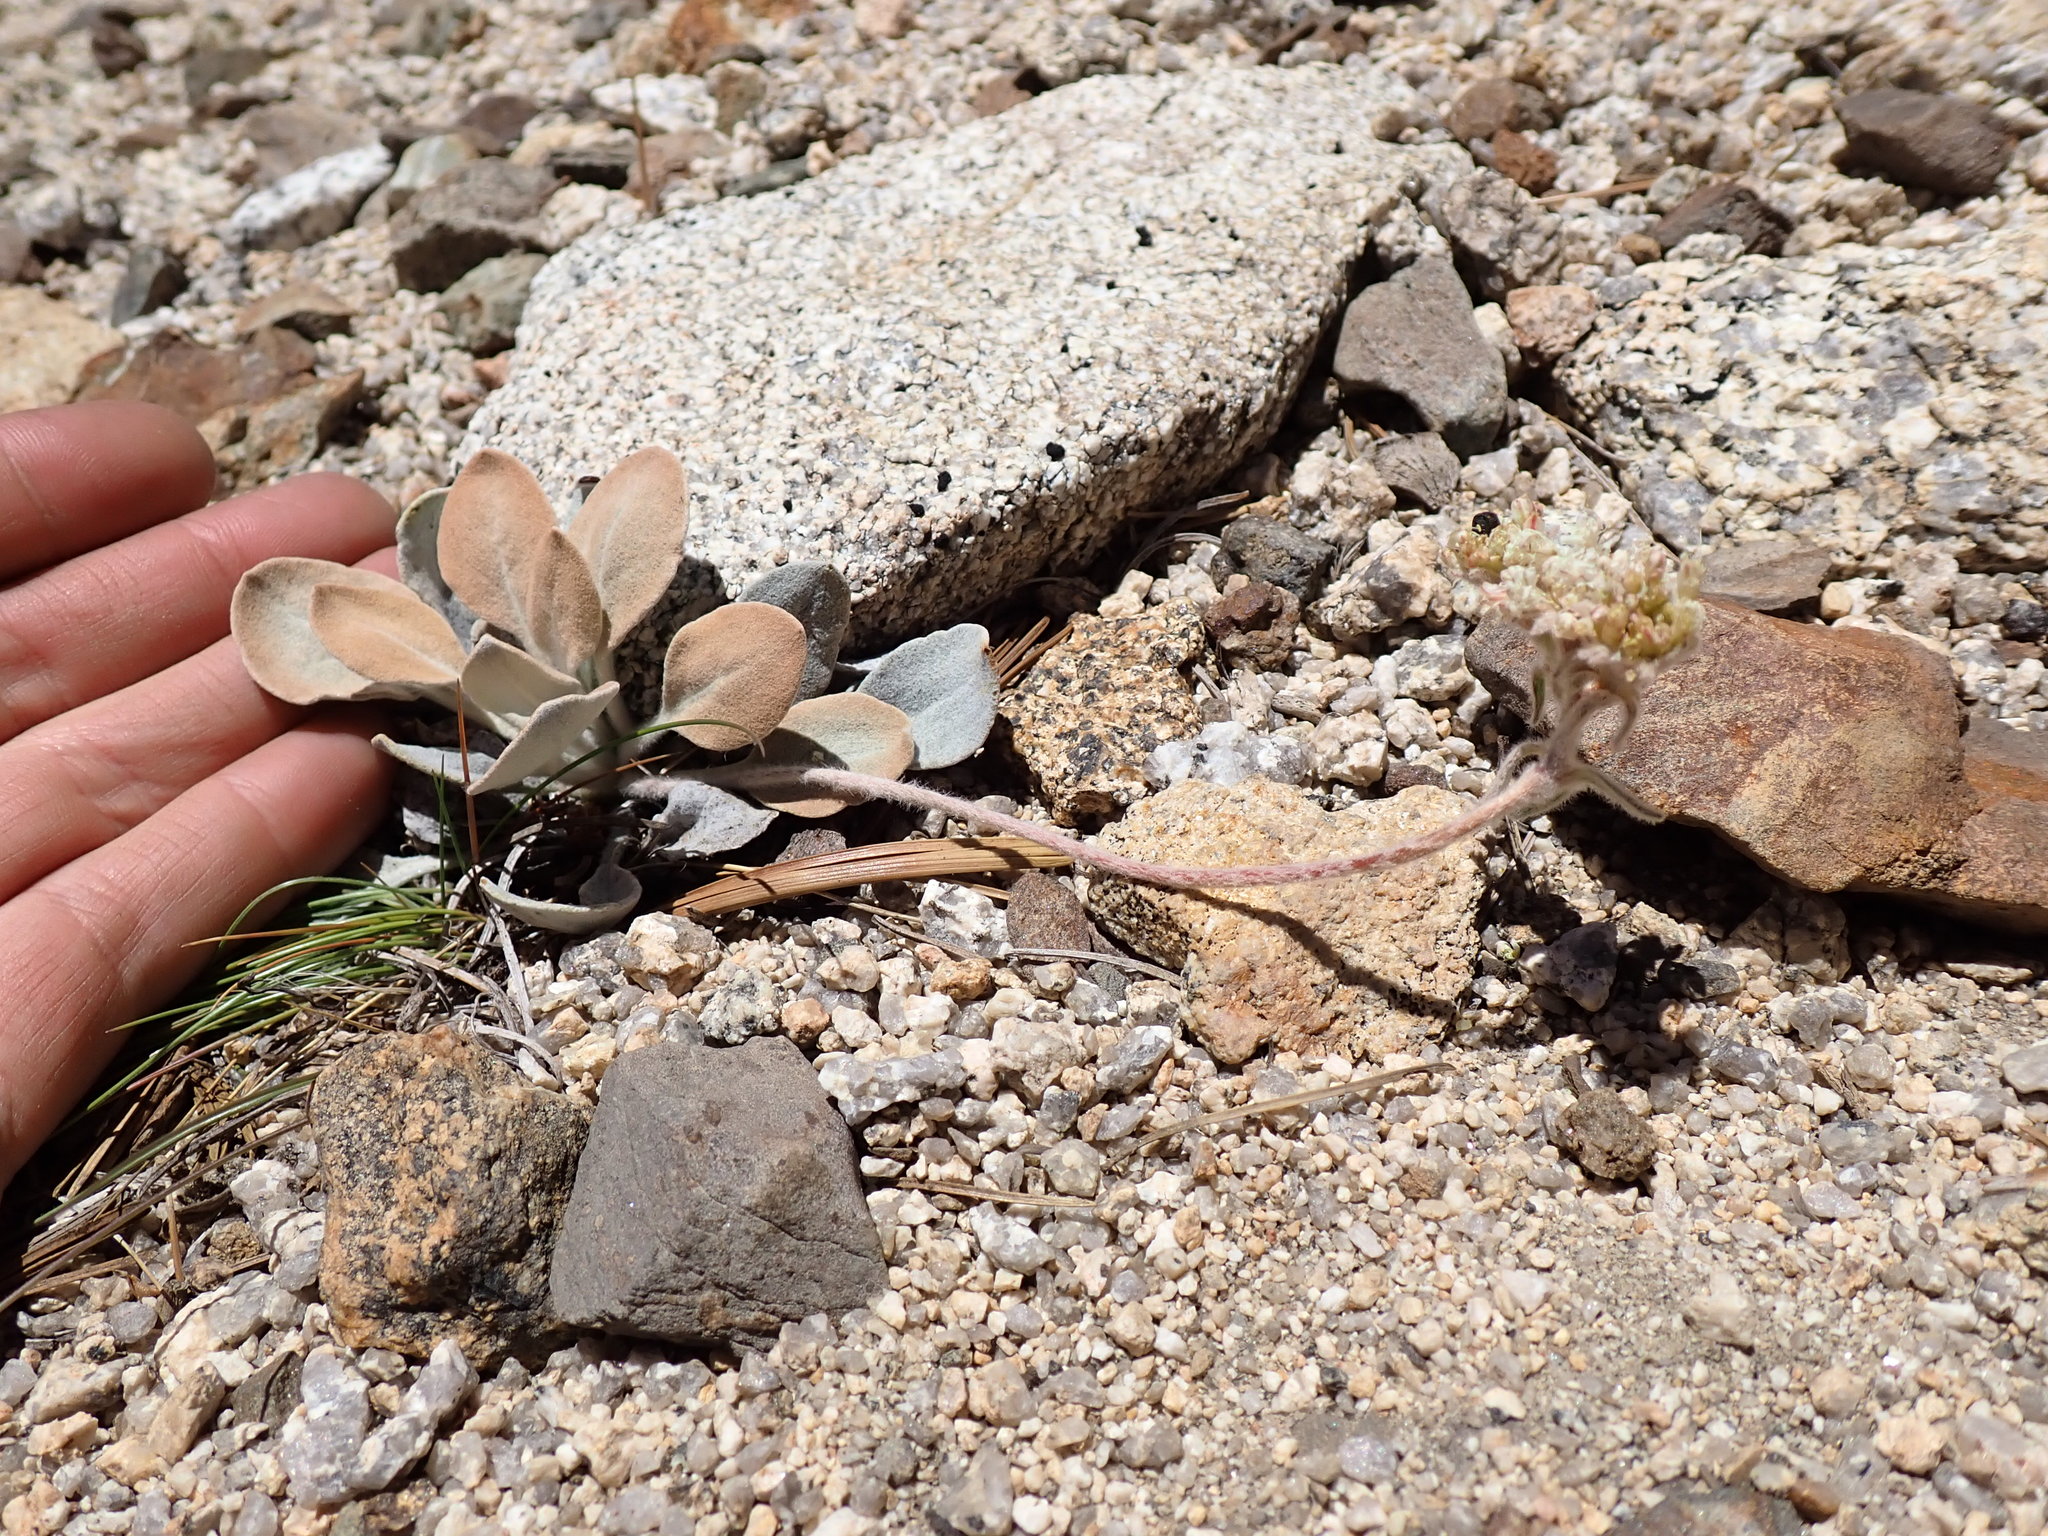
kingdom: Plantae
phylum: Tracheophyta
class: Magnoliopsida
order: Caryophyllales
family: Polygonaceae
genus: Eriogonum
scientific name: Eriogonum lobbii
